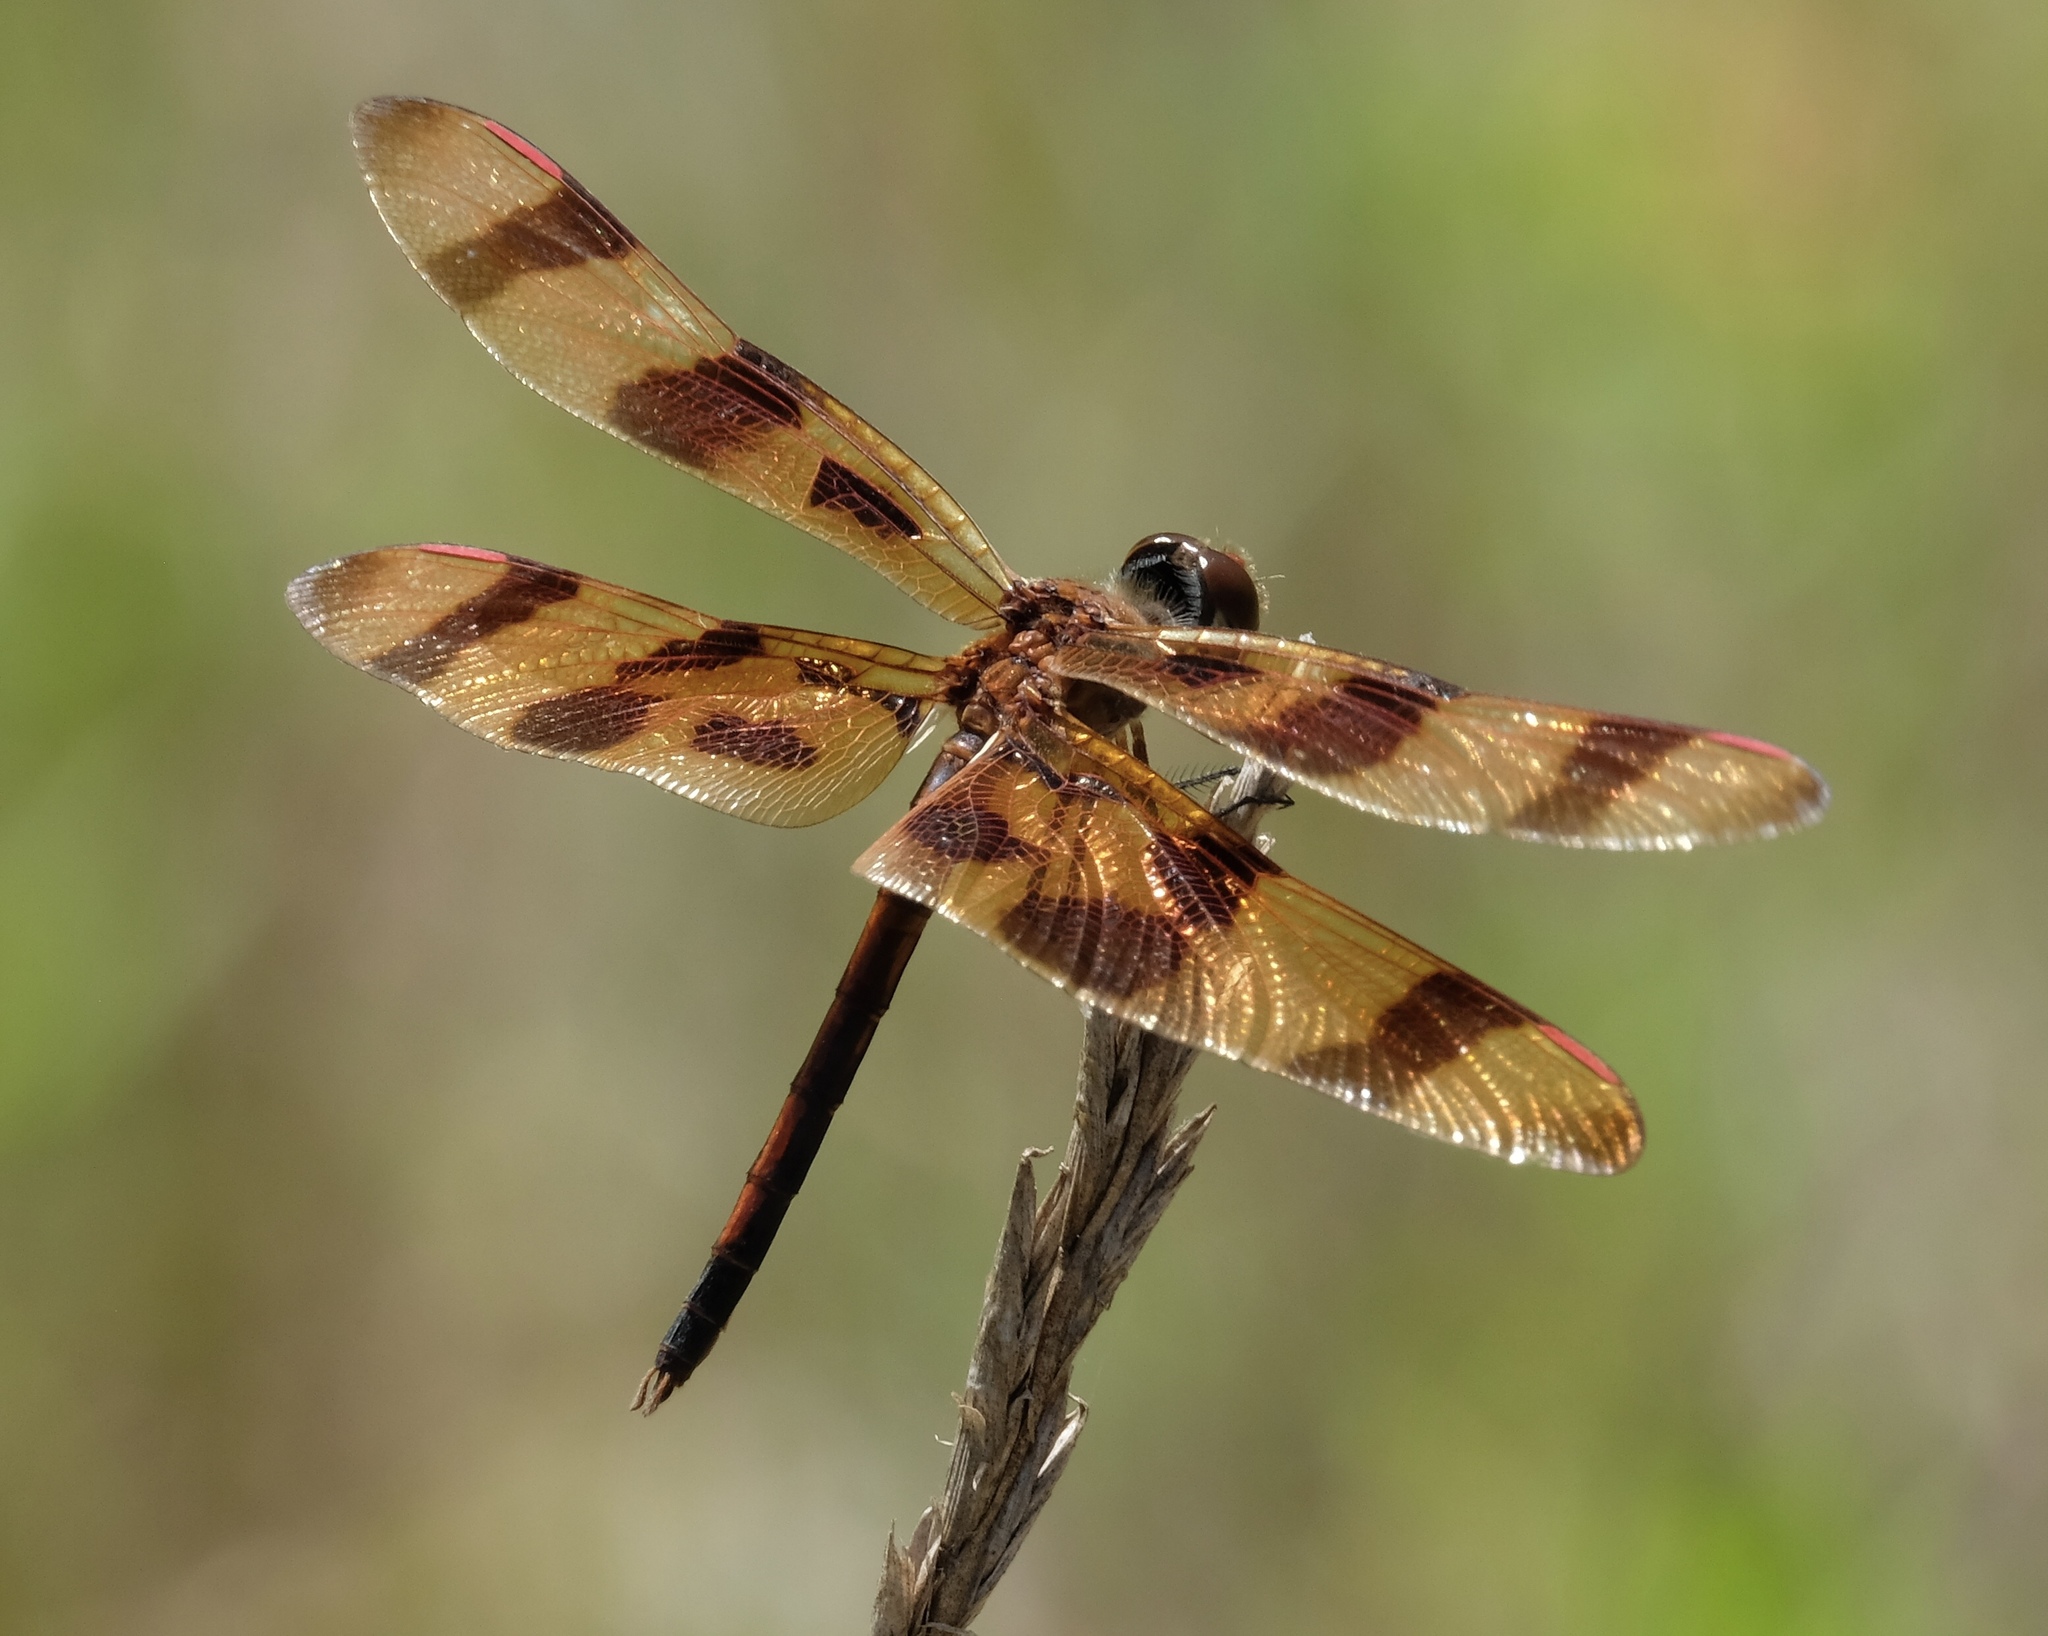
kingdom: Animalia
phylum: Arthropoda
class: Insecta
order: Odonata
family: Libellulidae
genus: Celithemis
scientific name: Celithemis eponina
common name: Halloween pennant
